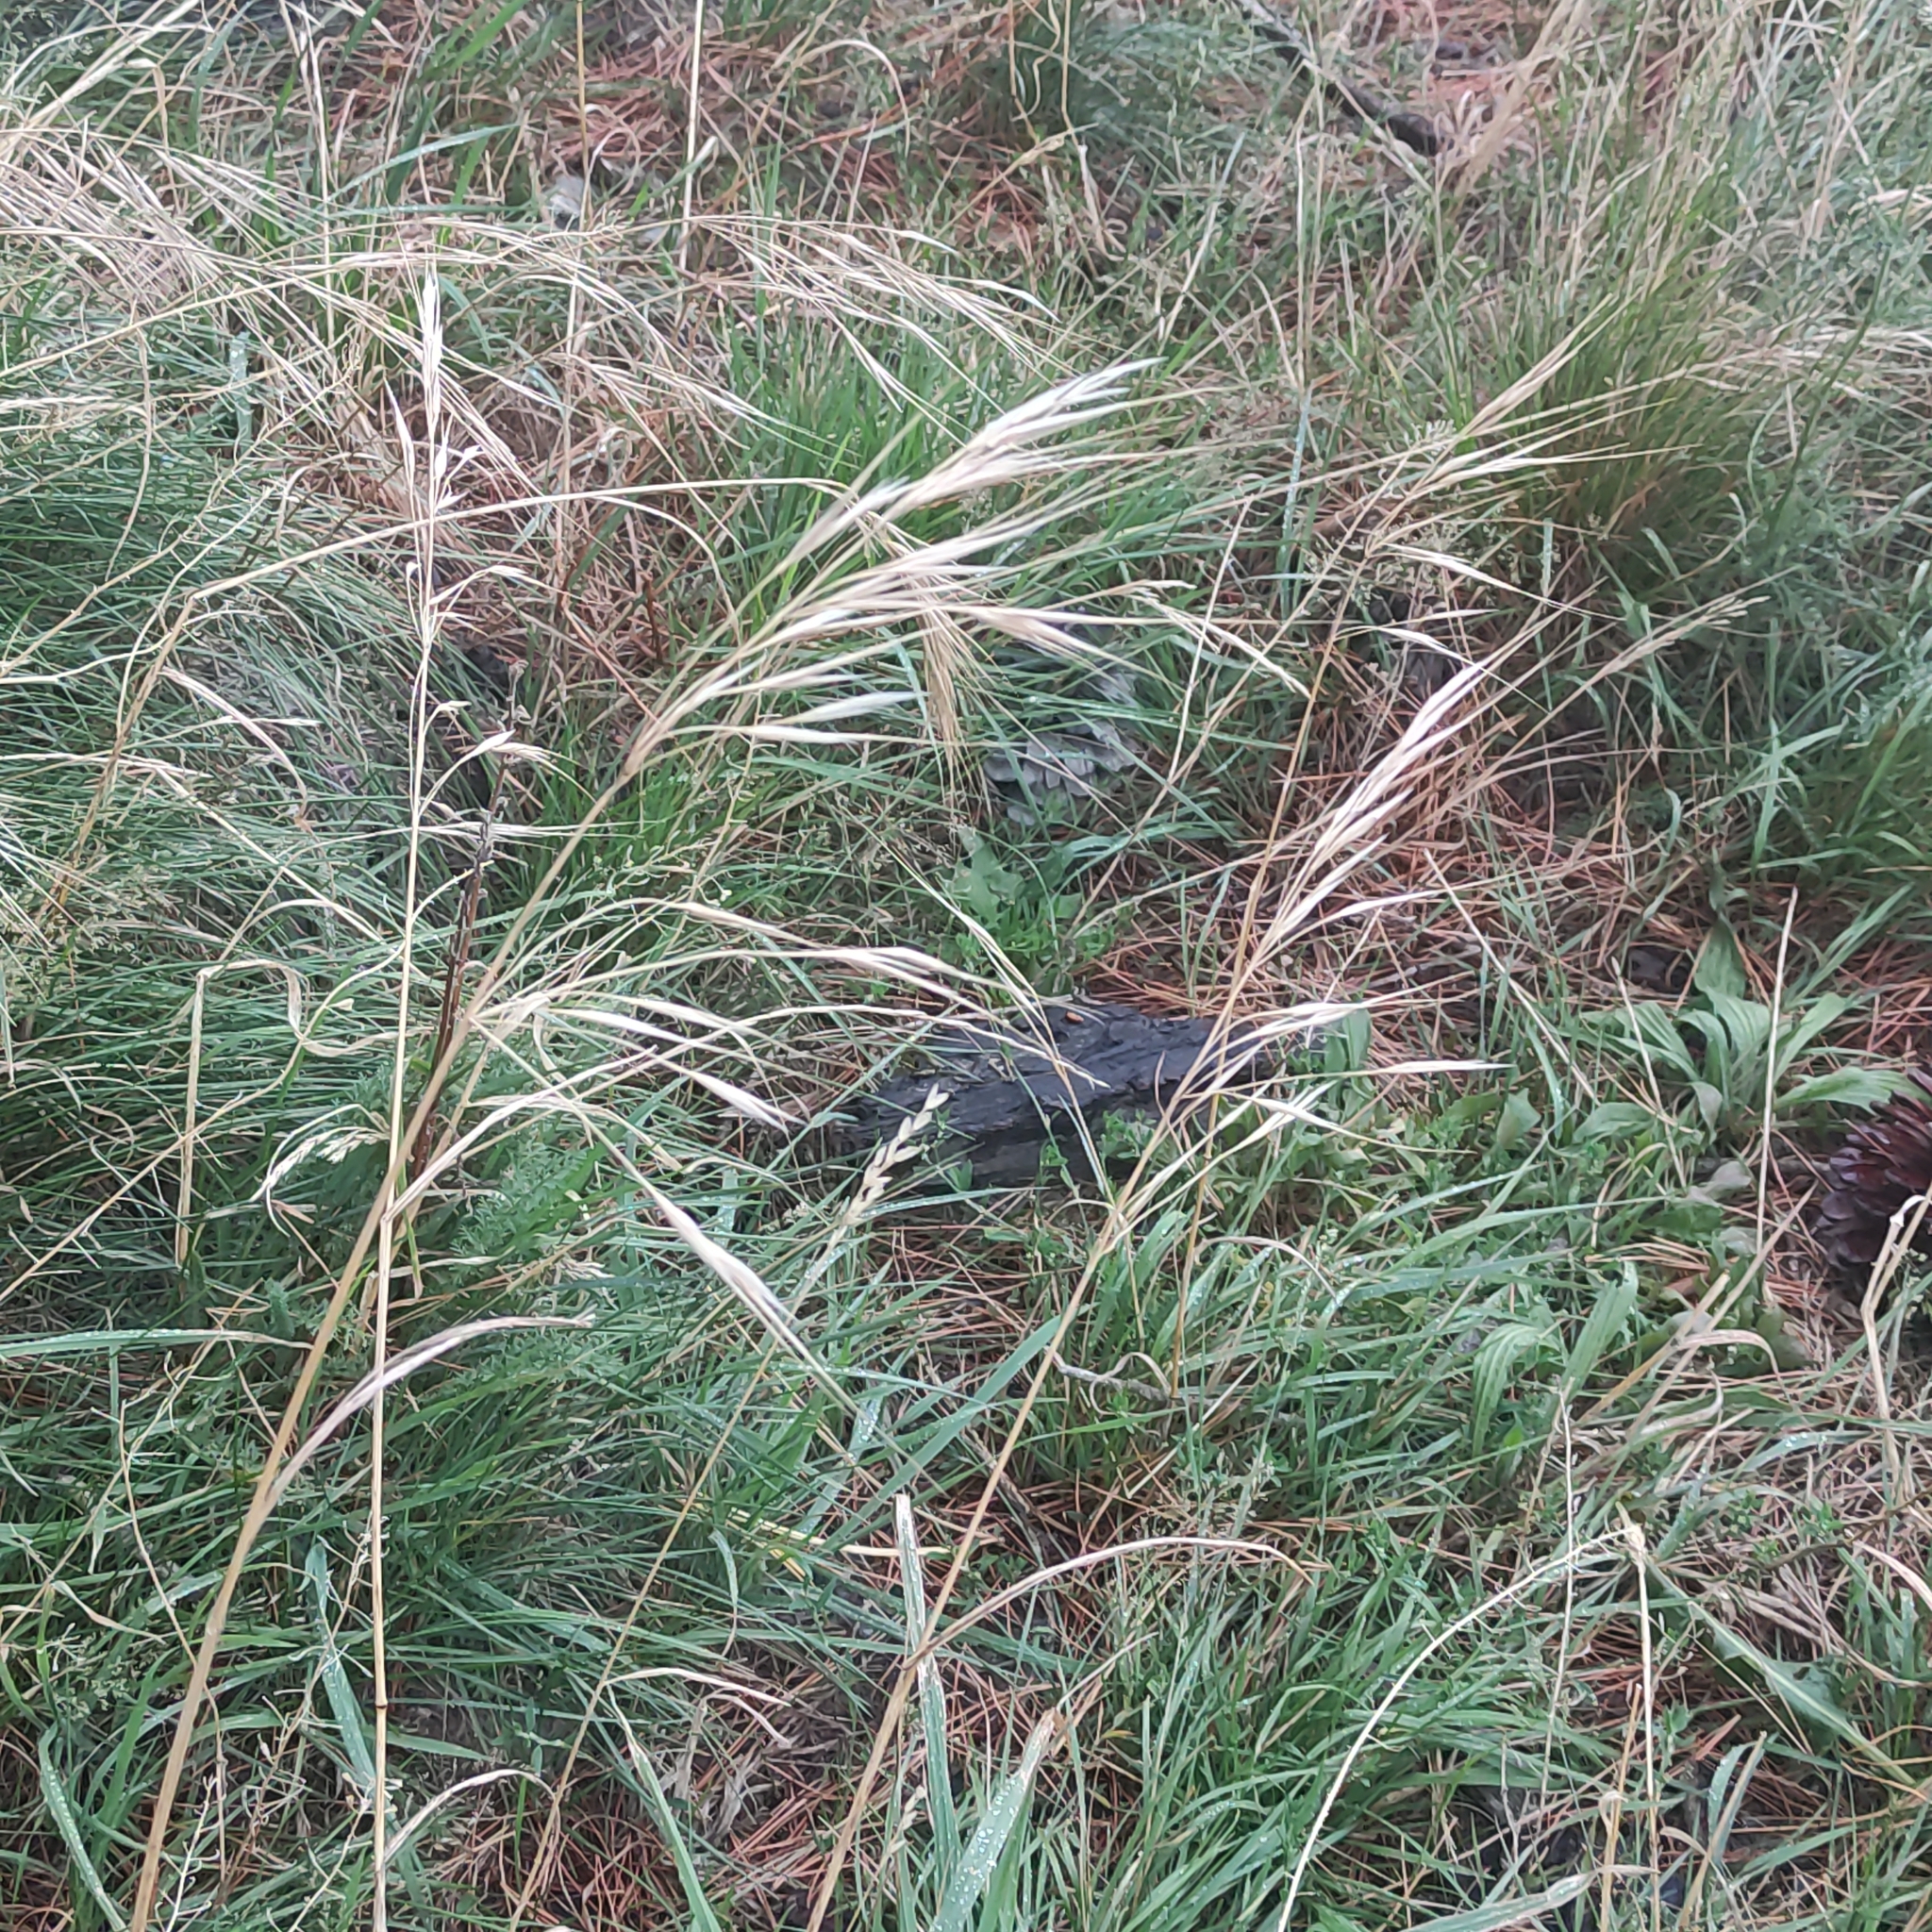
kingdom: Plantae
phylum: Tracheophyta
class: Liliopsida
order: Poales
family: Poaceae
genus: Bromus
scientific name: Bromus diandrus
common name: Ripgut brome
